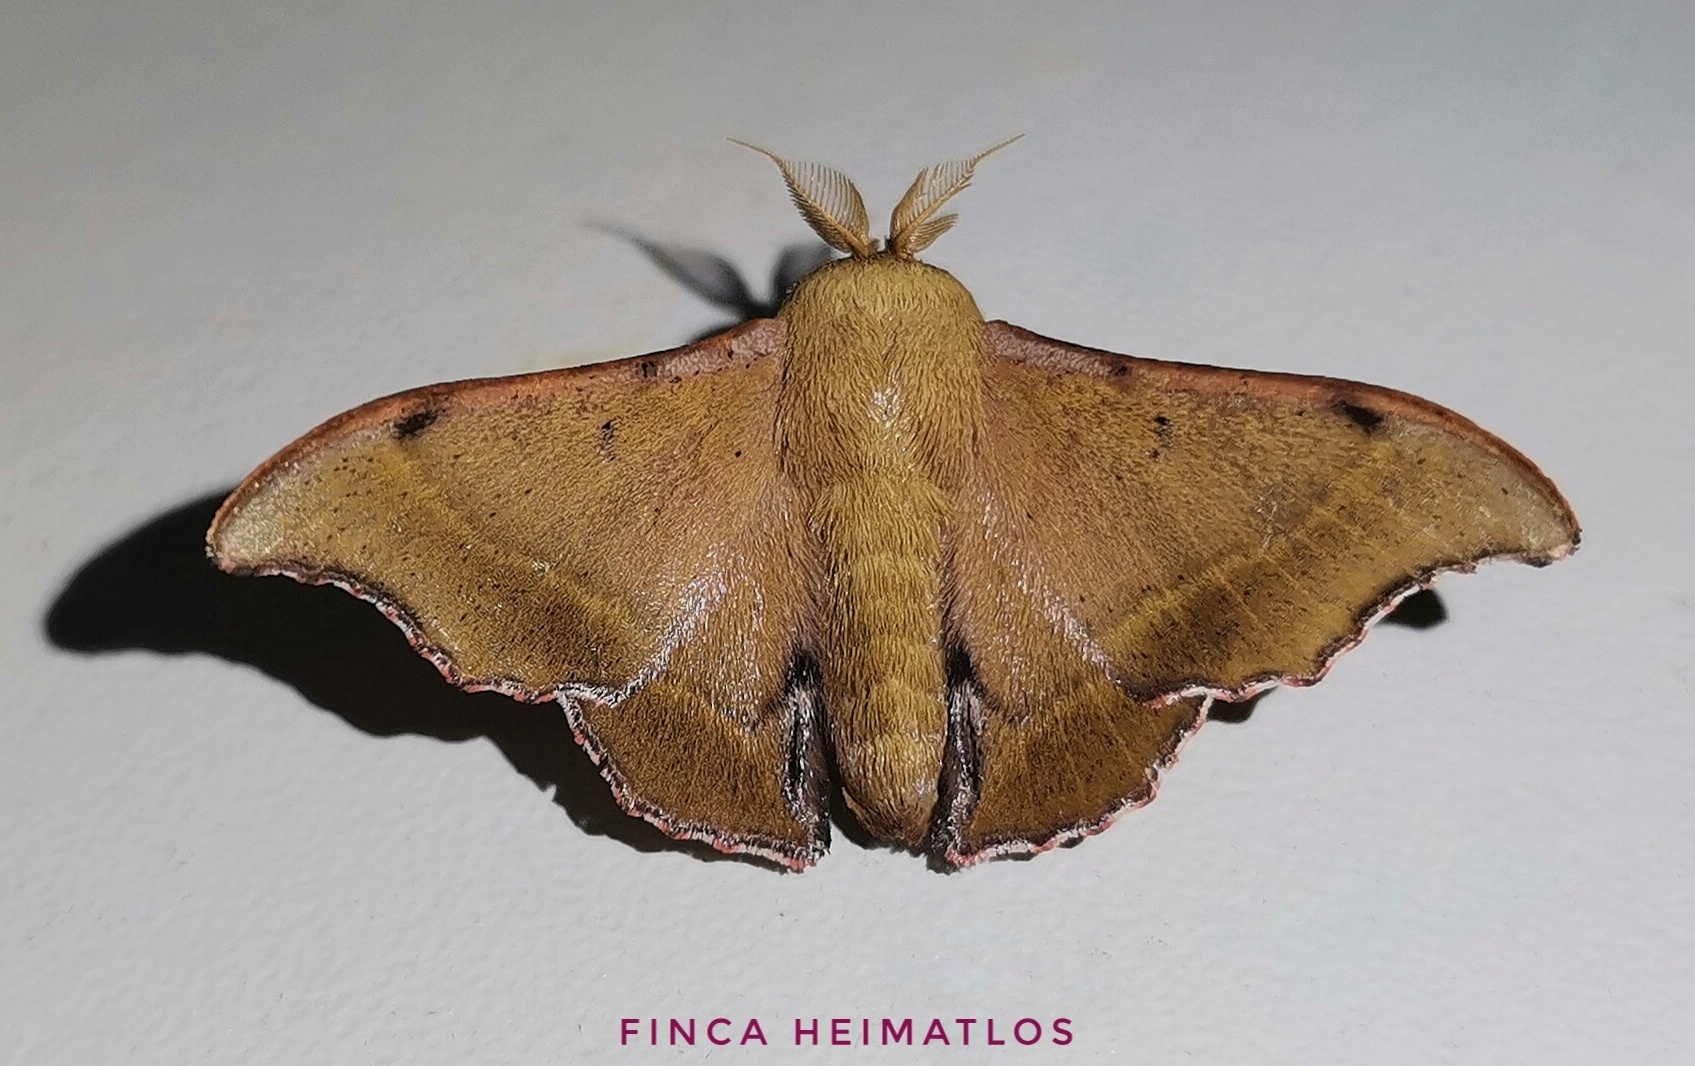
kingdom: Animalia
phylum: Arthropoda
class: Insecta
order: Lepidoptera
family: Mimallonidae
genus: Lacosoma
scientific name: Lacosoma oyapoca
